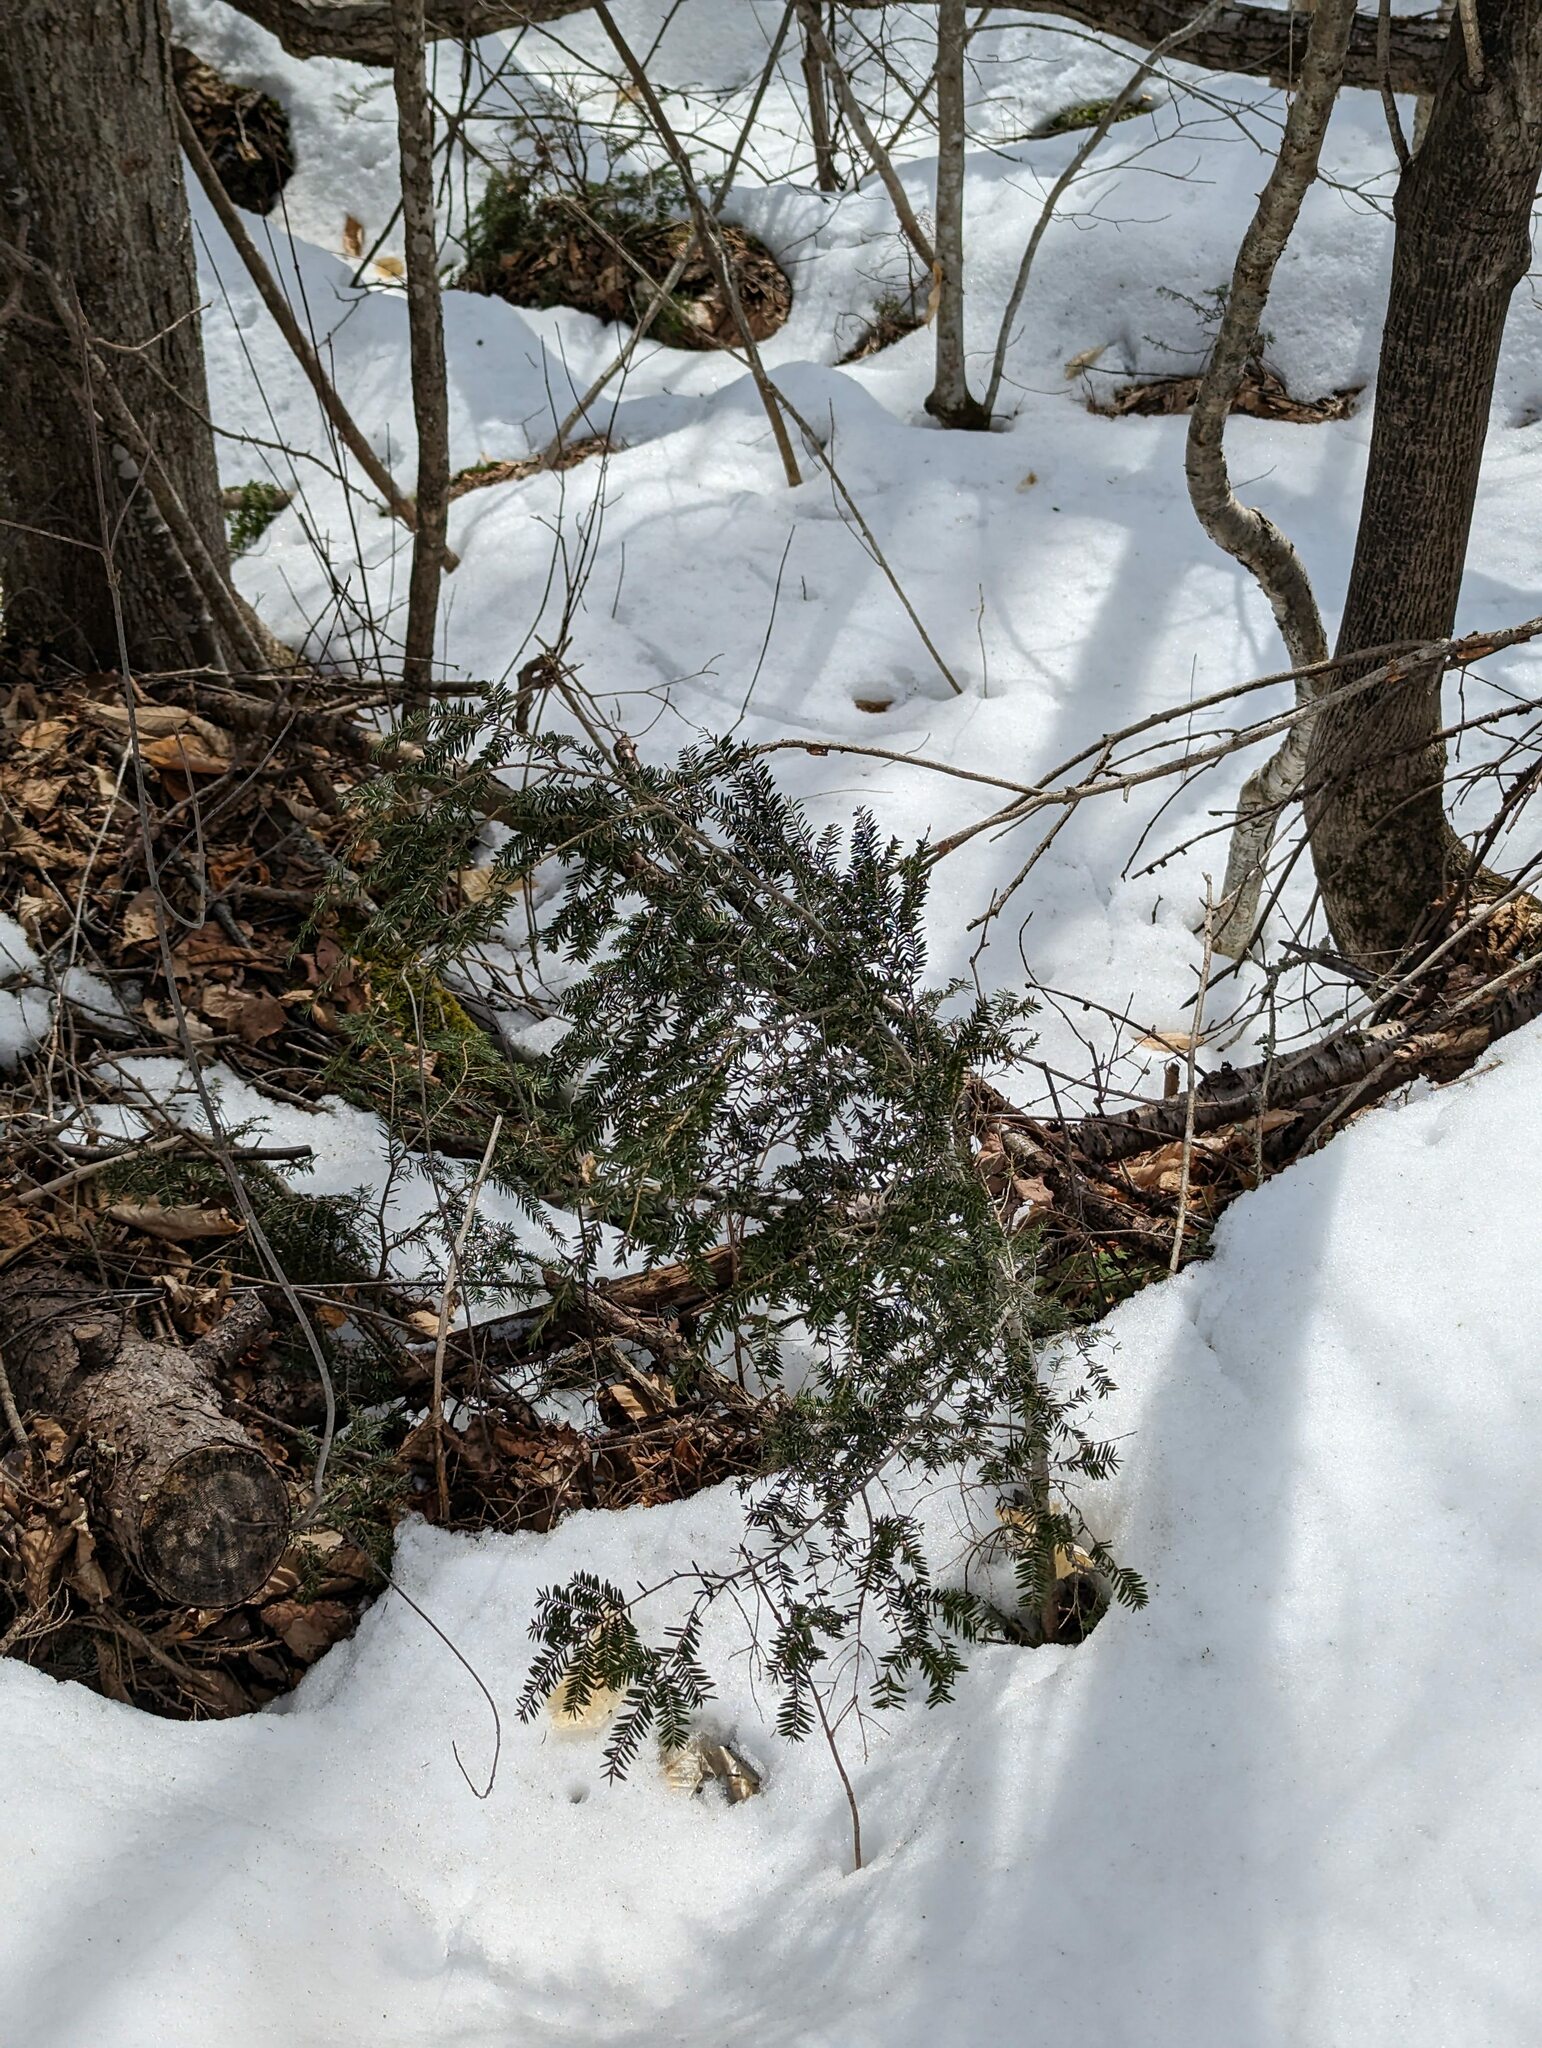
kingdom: Plantae
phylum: Tracheophyta
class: Pinopsida
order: Pinales
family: Pinaceae
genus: Tsuga
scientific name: Tsuga canadensis
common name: Eastern hemlock
